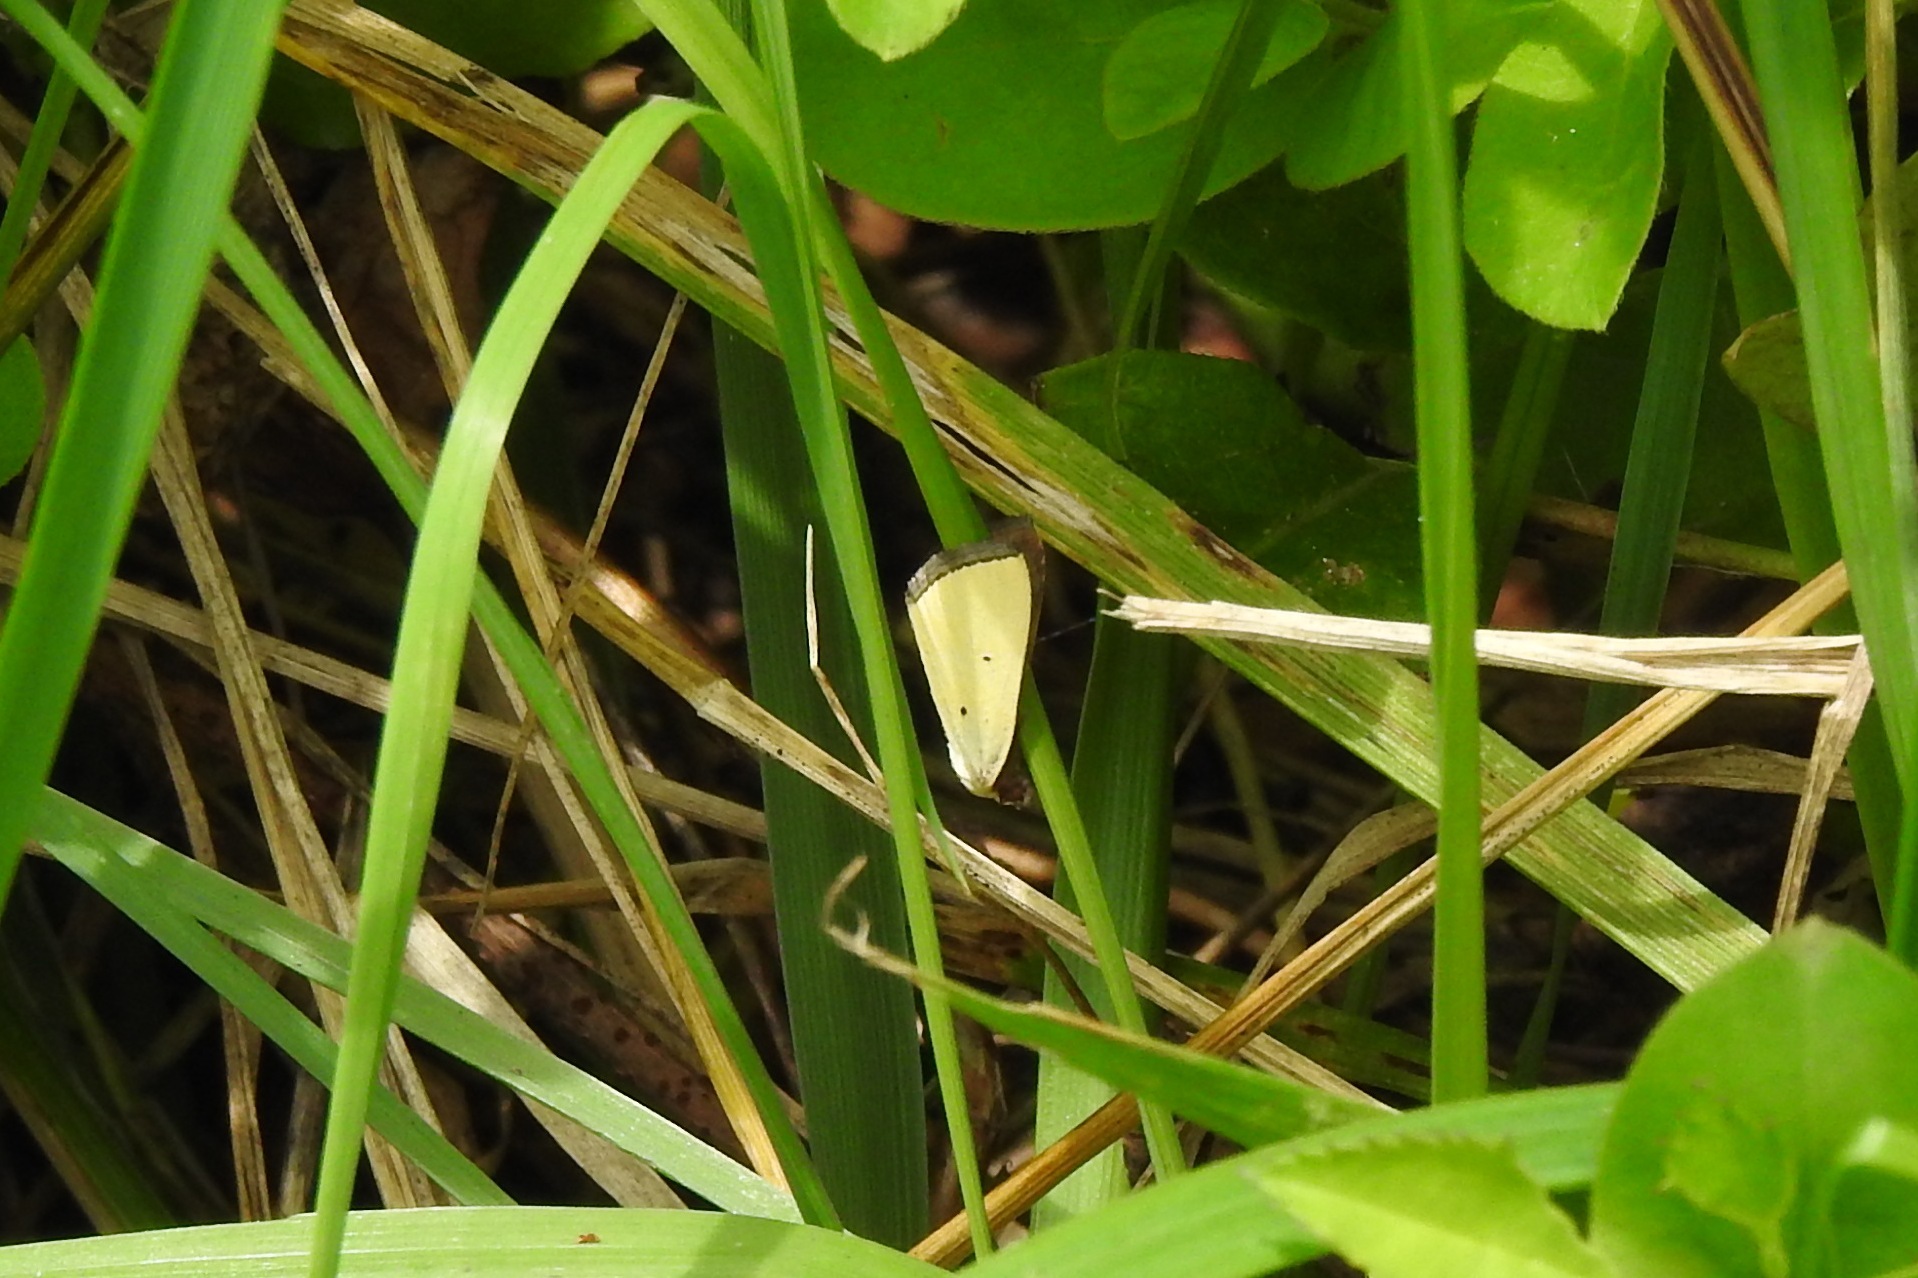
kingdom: Animalia
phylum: Arthropoda
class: Insecta
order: Lepidoptera
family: Noctuidae
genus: Marimatha
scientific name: Marimatha nigrofimbria
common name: Black-bordered lemon moth
